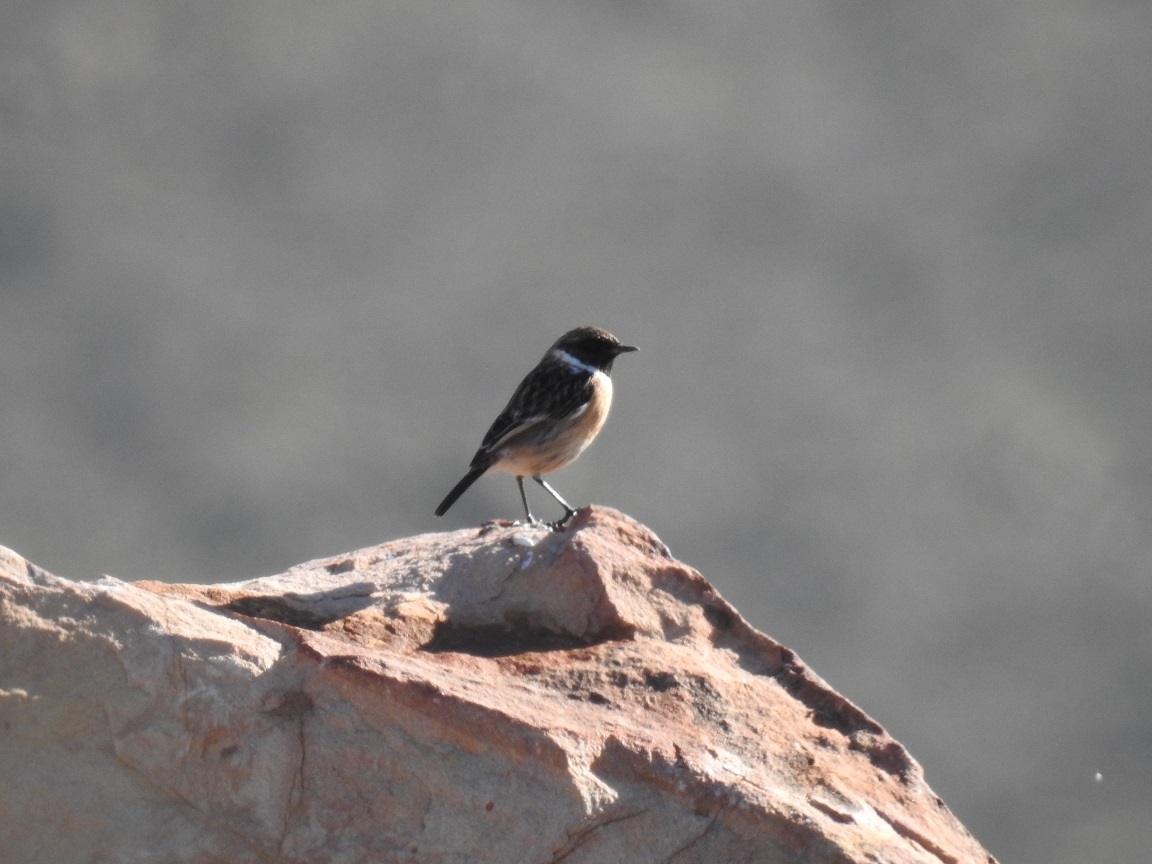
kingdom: Animalia
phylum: Chordata
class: Aves
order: Passeriformes
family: Muscicapidae
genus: Saxicola
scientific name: Saxicola rubicola
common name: European stonechat
